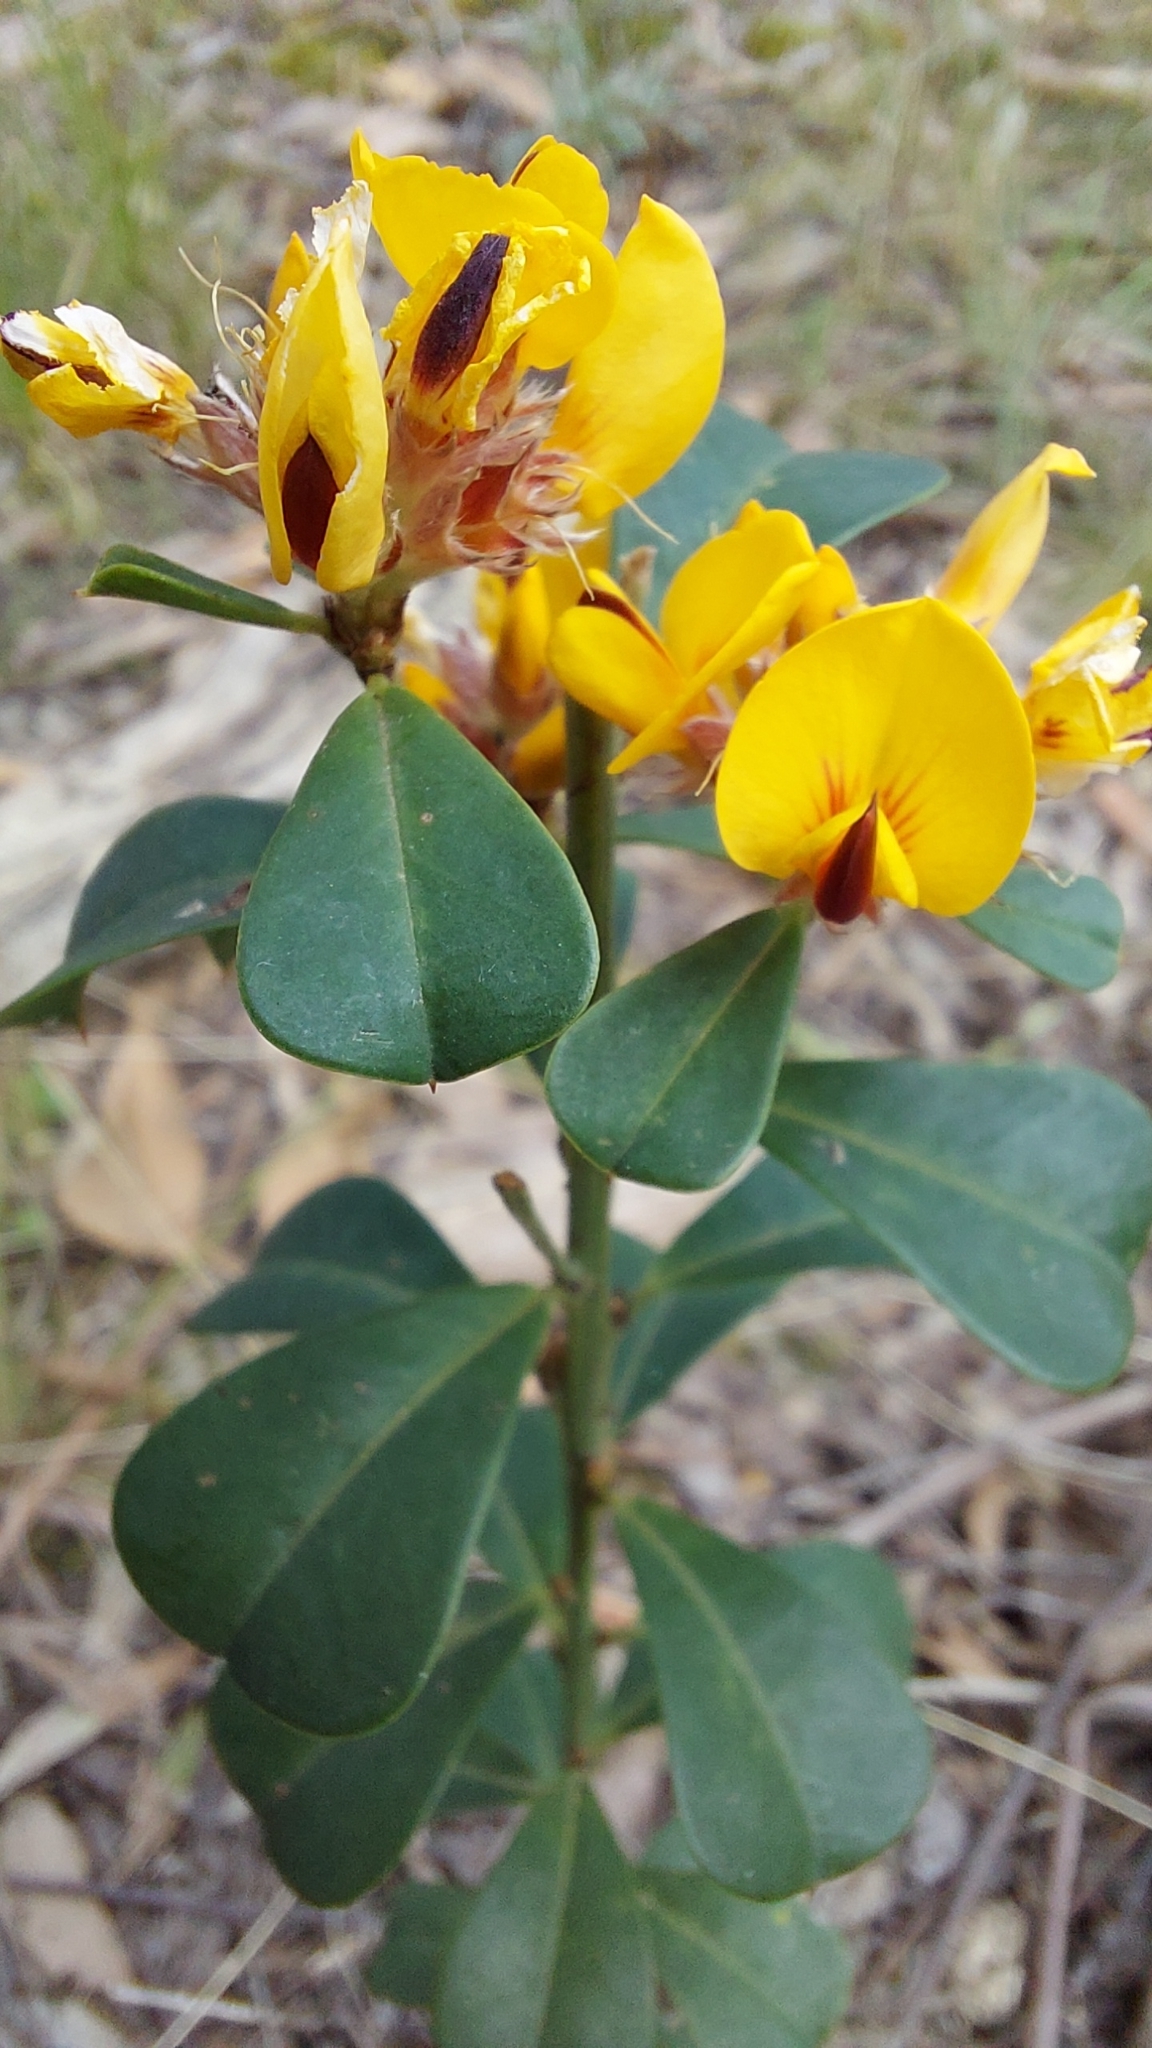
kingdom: Plantae
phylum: Tracheophyta
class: Magnoliopsida
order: Fabales
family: Fabaceae
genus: Pultenaea
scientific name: Pultenaea daphnoides
